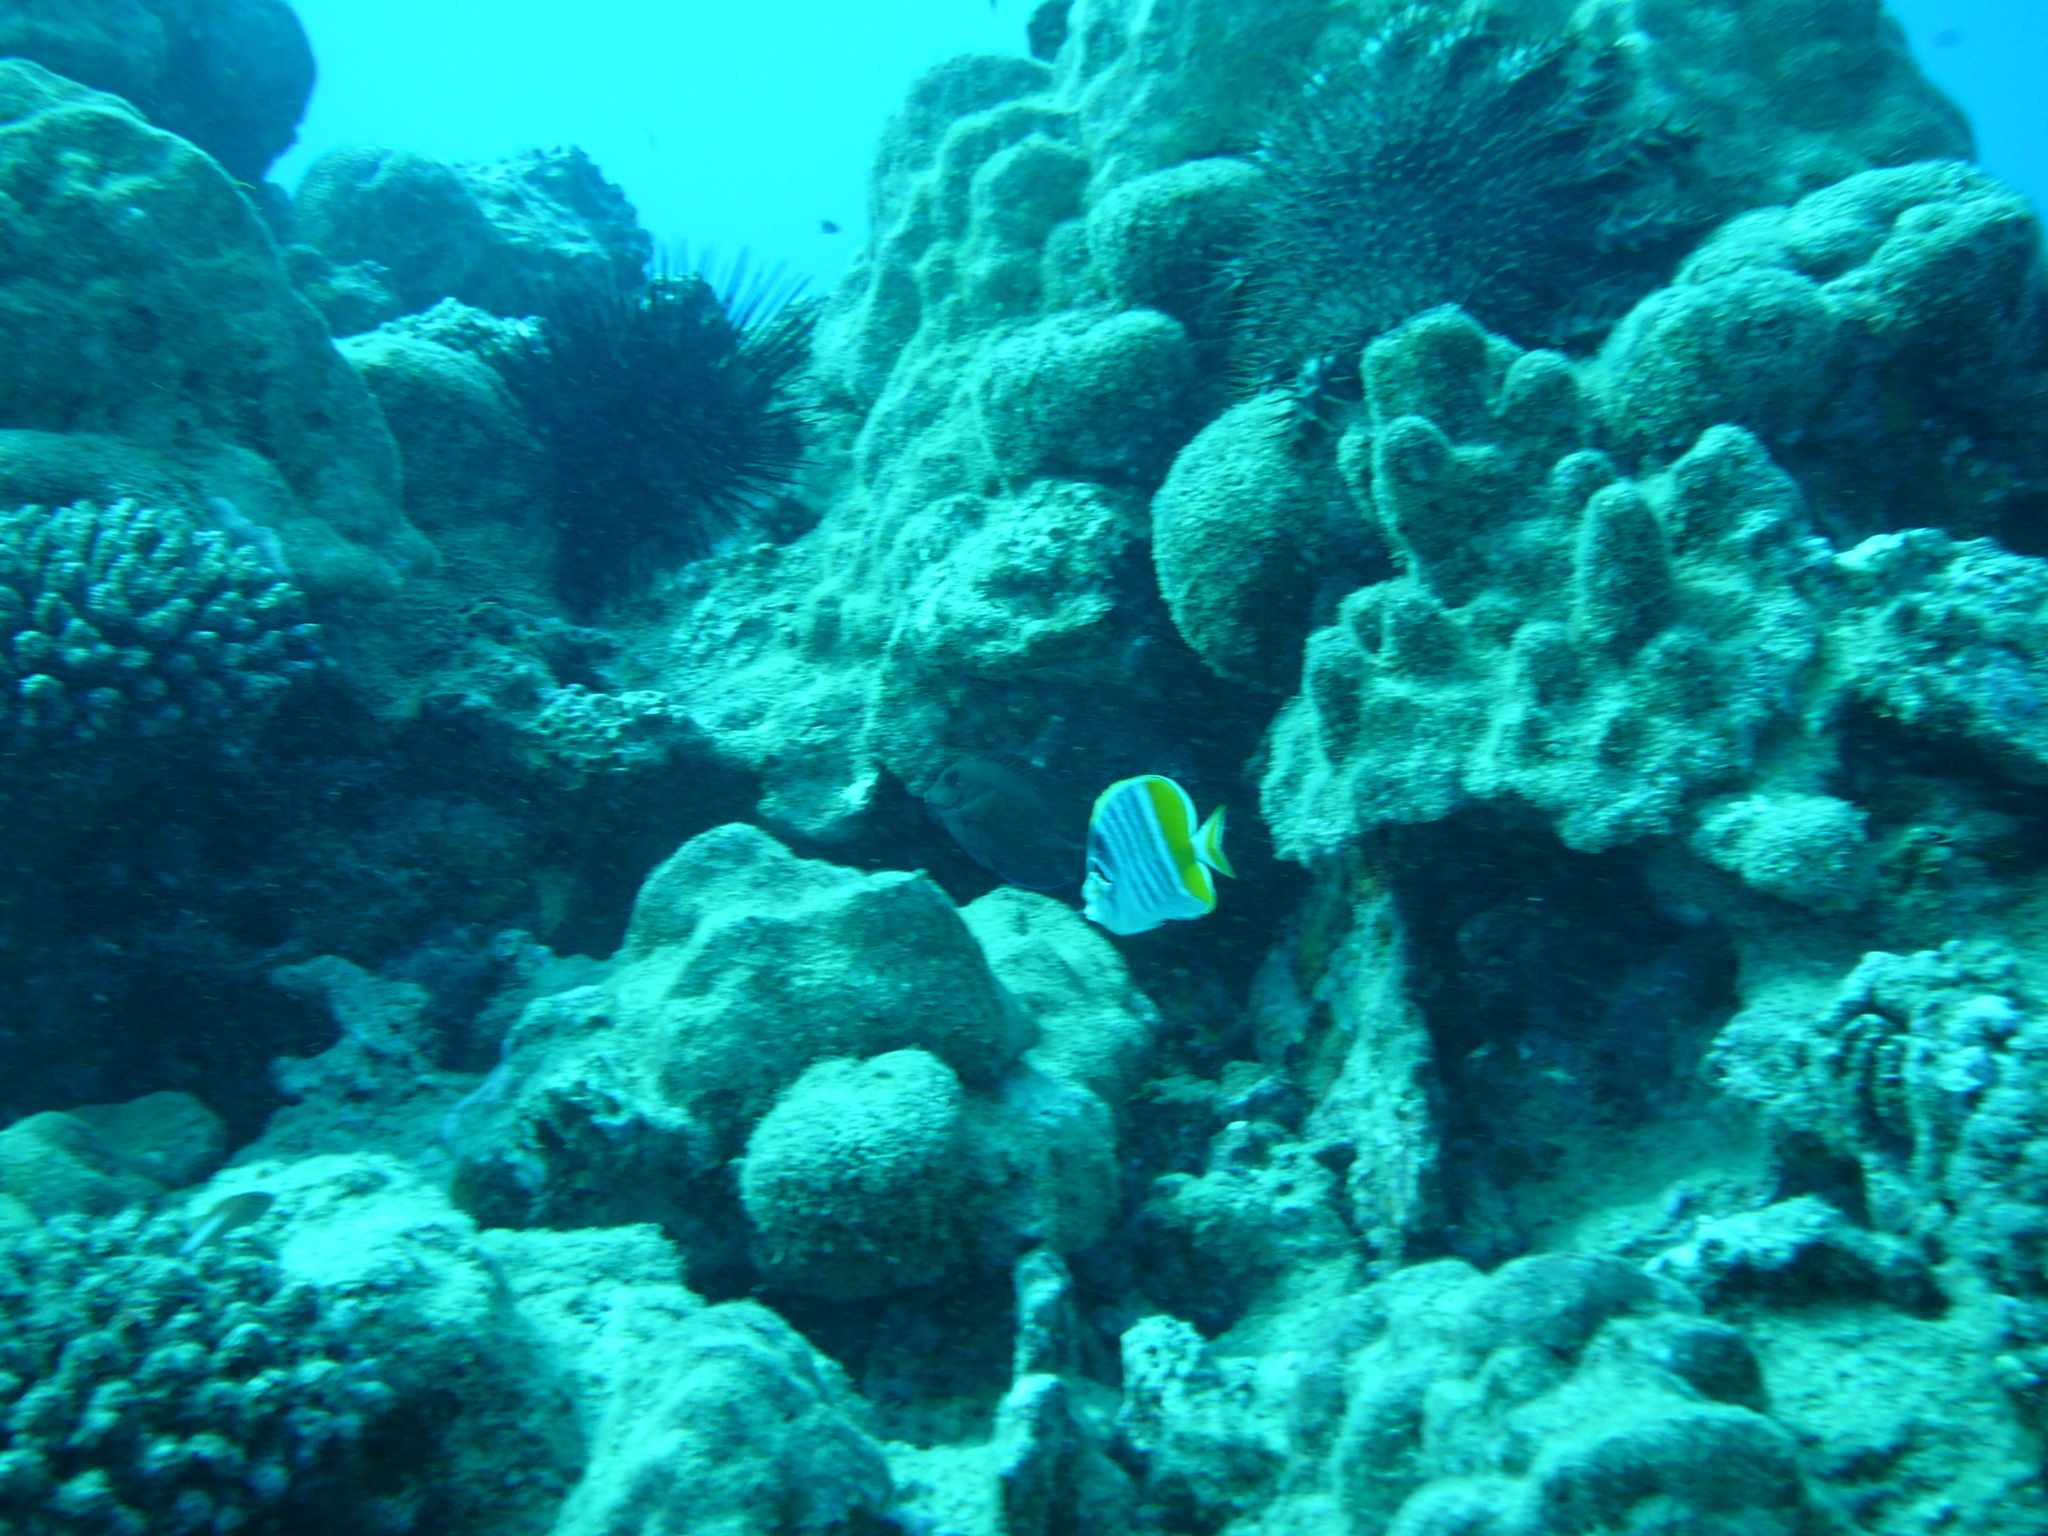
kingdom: Animalia
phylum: Chordata
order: Perciformes
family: Chaetodontidae
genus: Chaetodon
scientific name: Chaetodon mertensii
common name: Merten's butterflyfish
